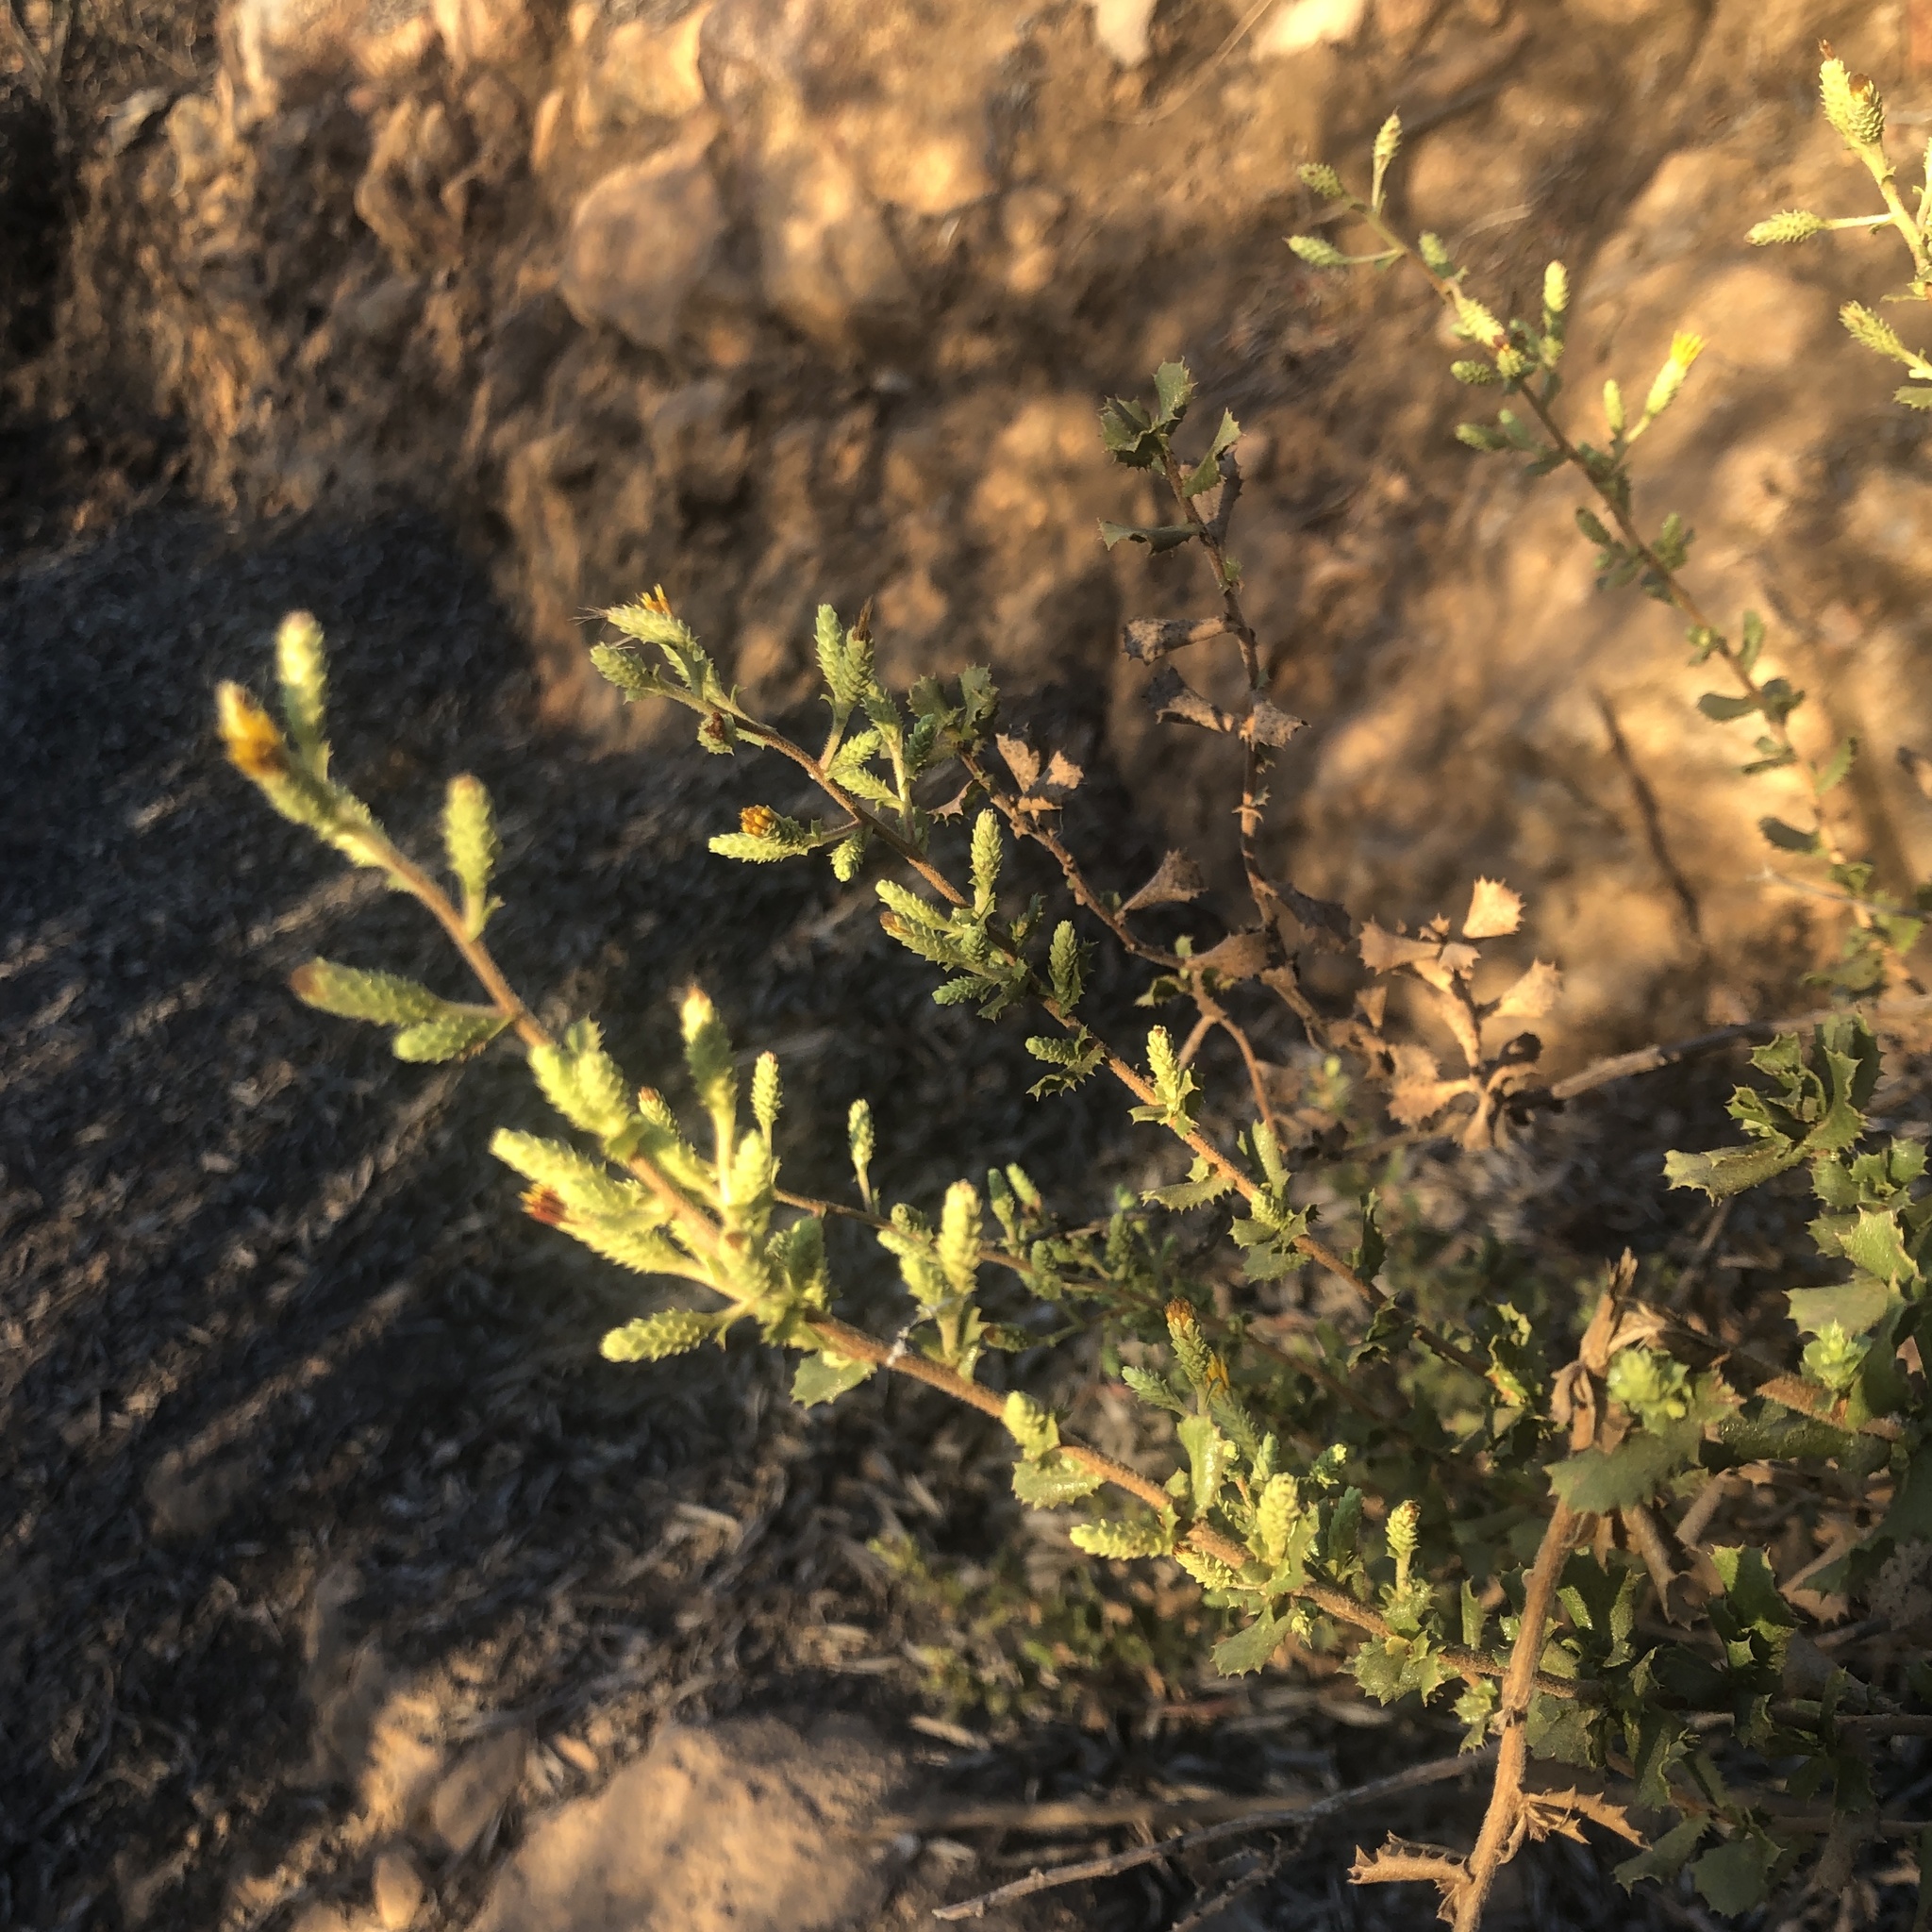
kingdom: Plantae
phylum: Tracheophyta
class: Magnoliopsida
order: Asterales
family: Asteraceae
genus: Hazardia
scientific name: Hazardia squarrosa
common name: Saw-tooth goldenbush
